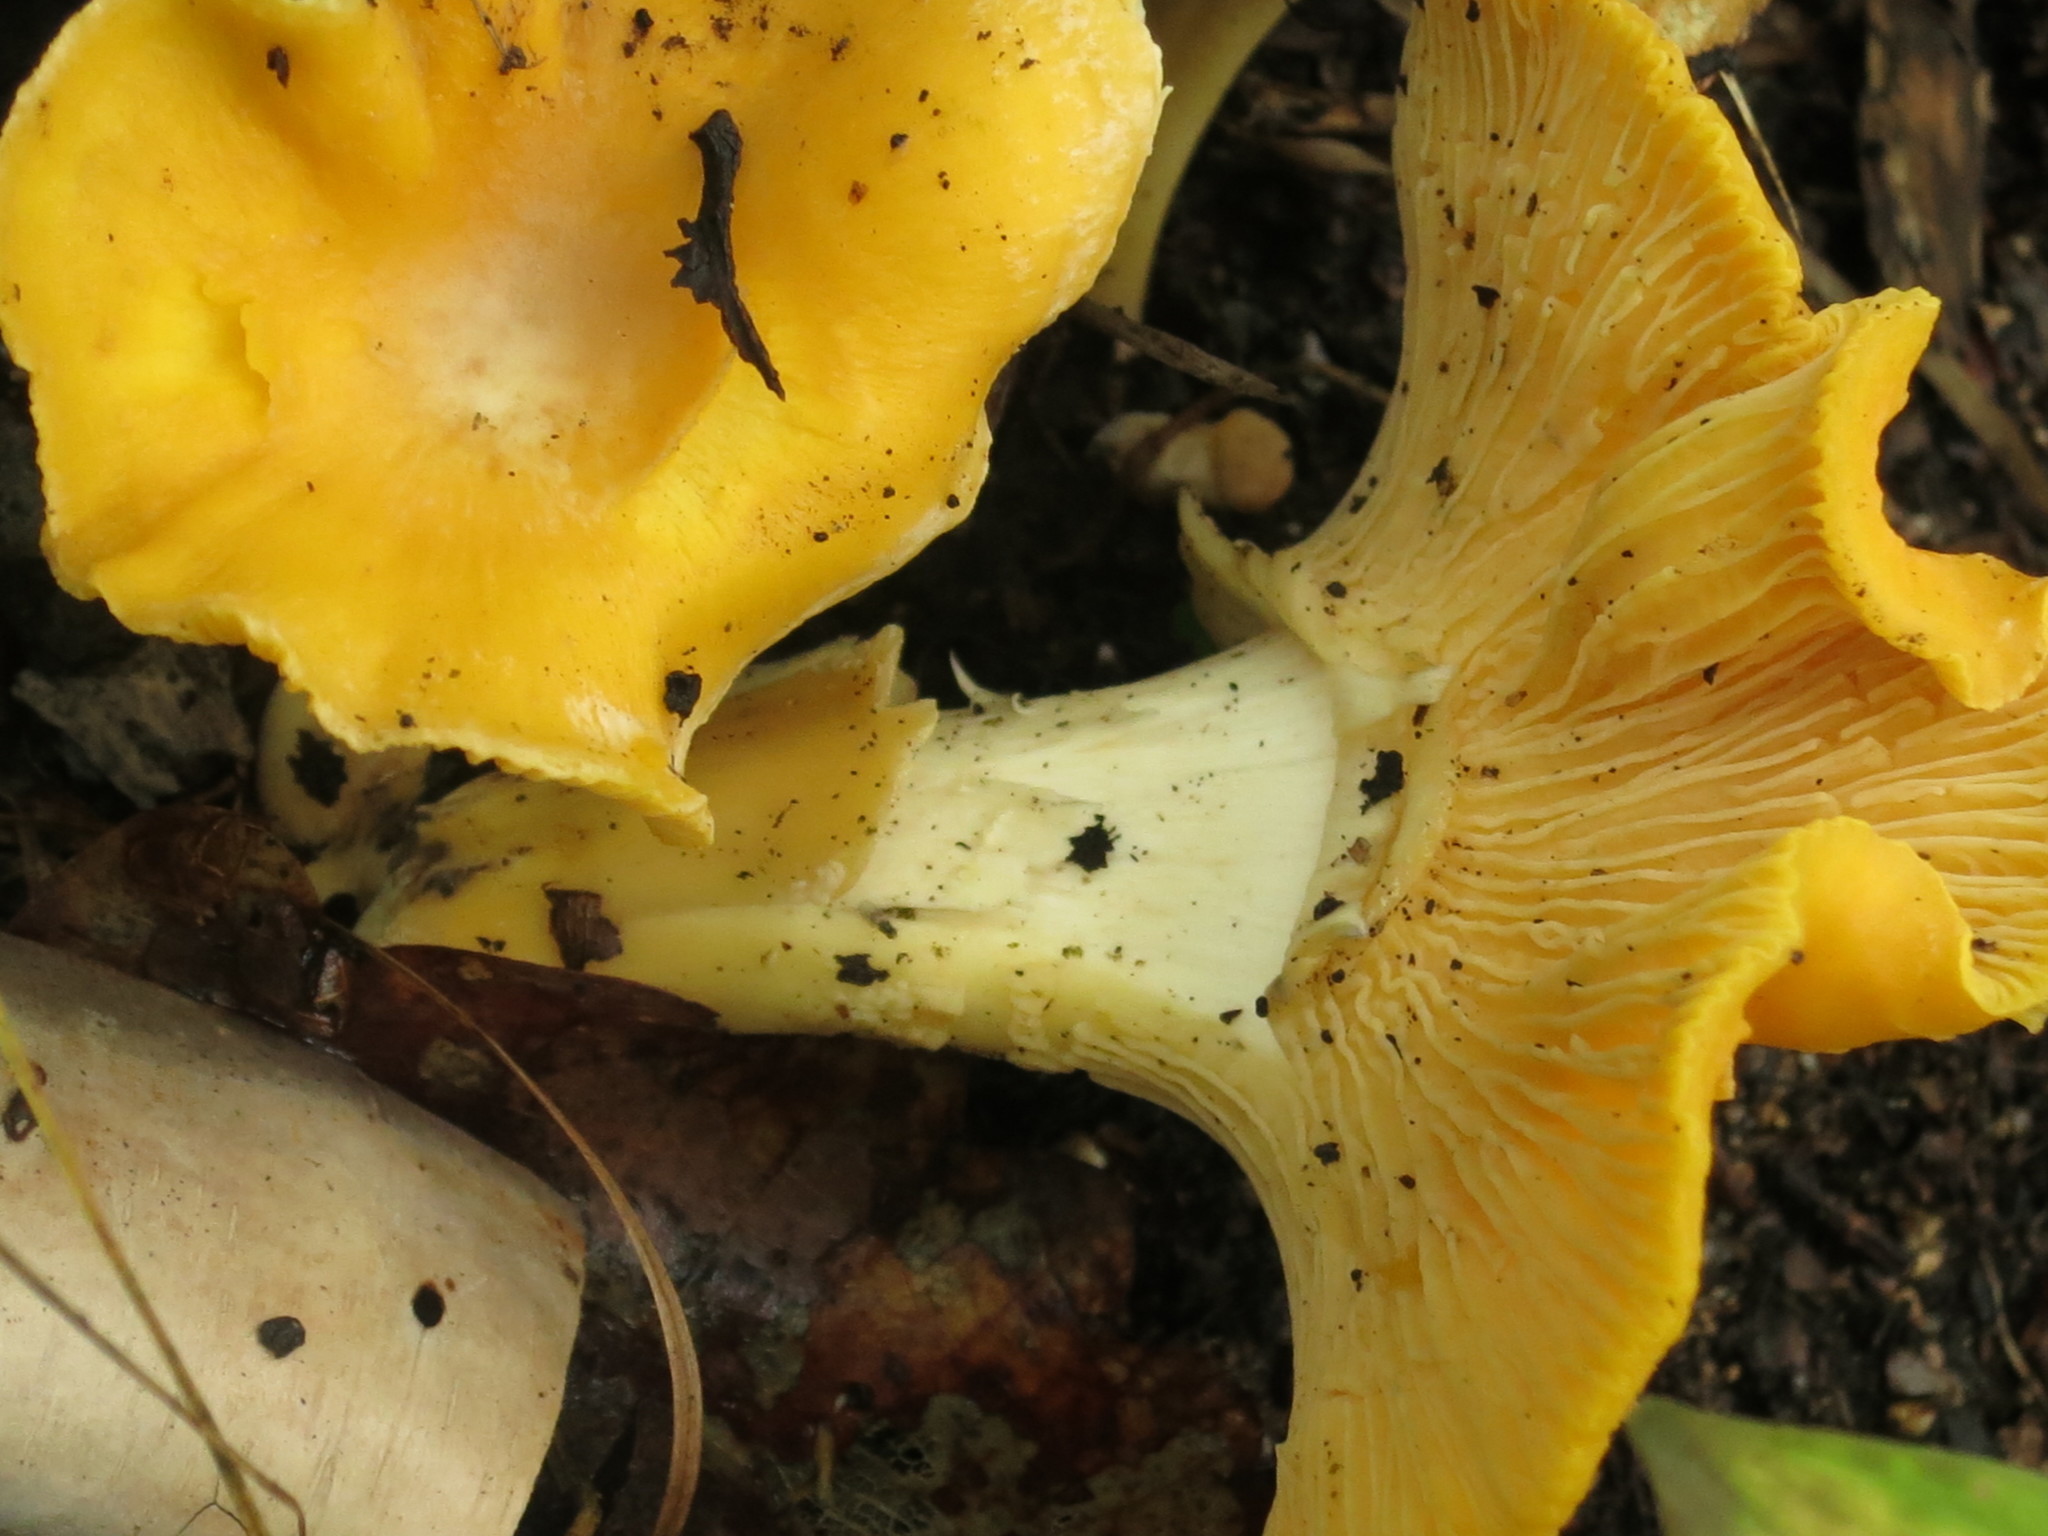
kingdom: Fungi
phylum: Basidiomycota
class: Agaricomycetes
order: Cantharellales
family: Hydnaceae
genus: Cantharellus
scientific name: Cantharellus cibarius
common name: Chanterelle
